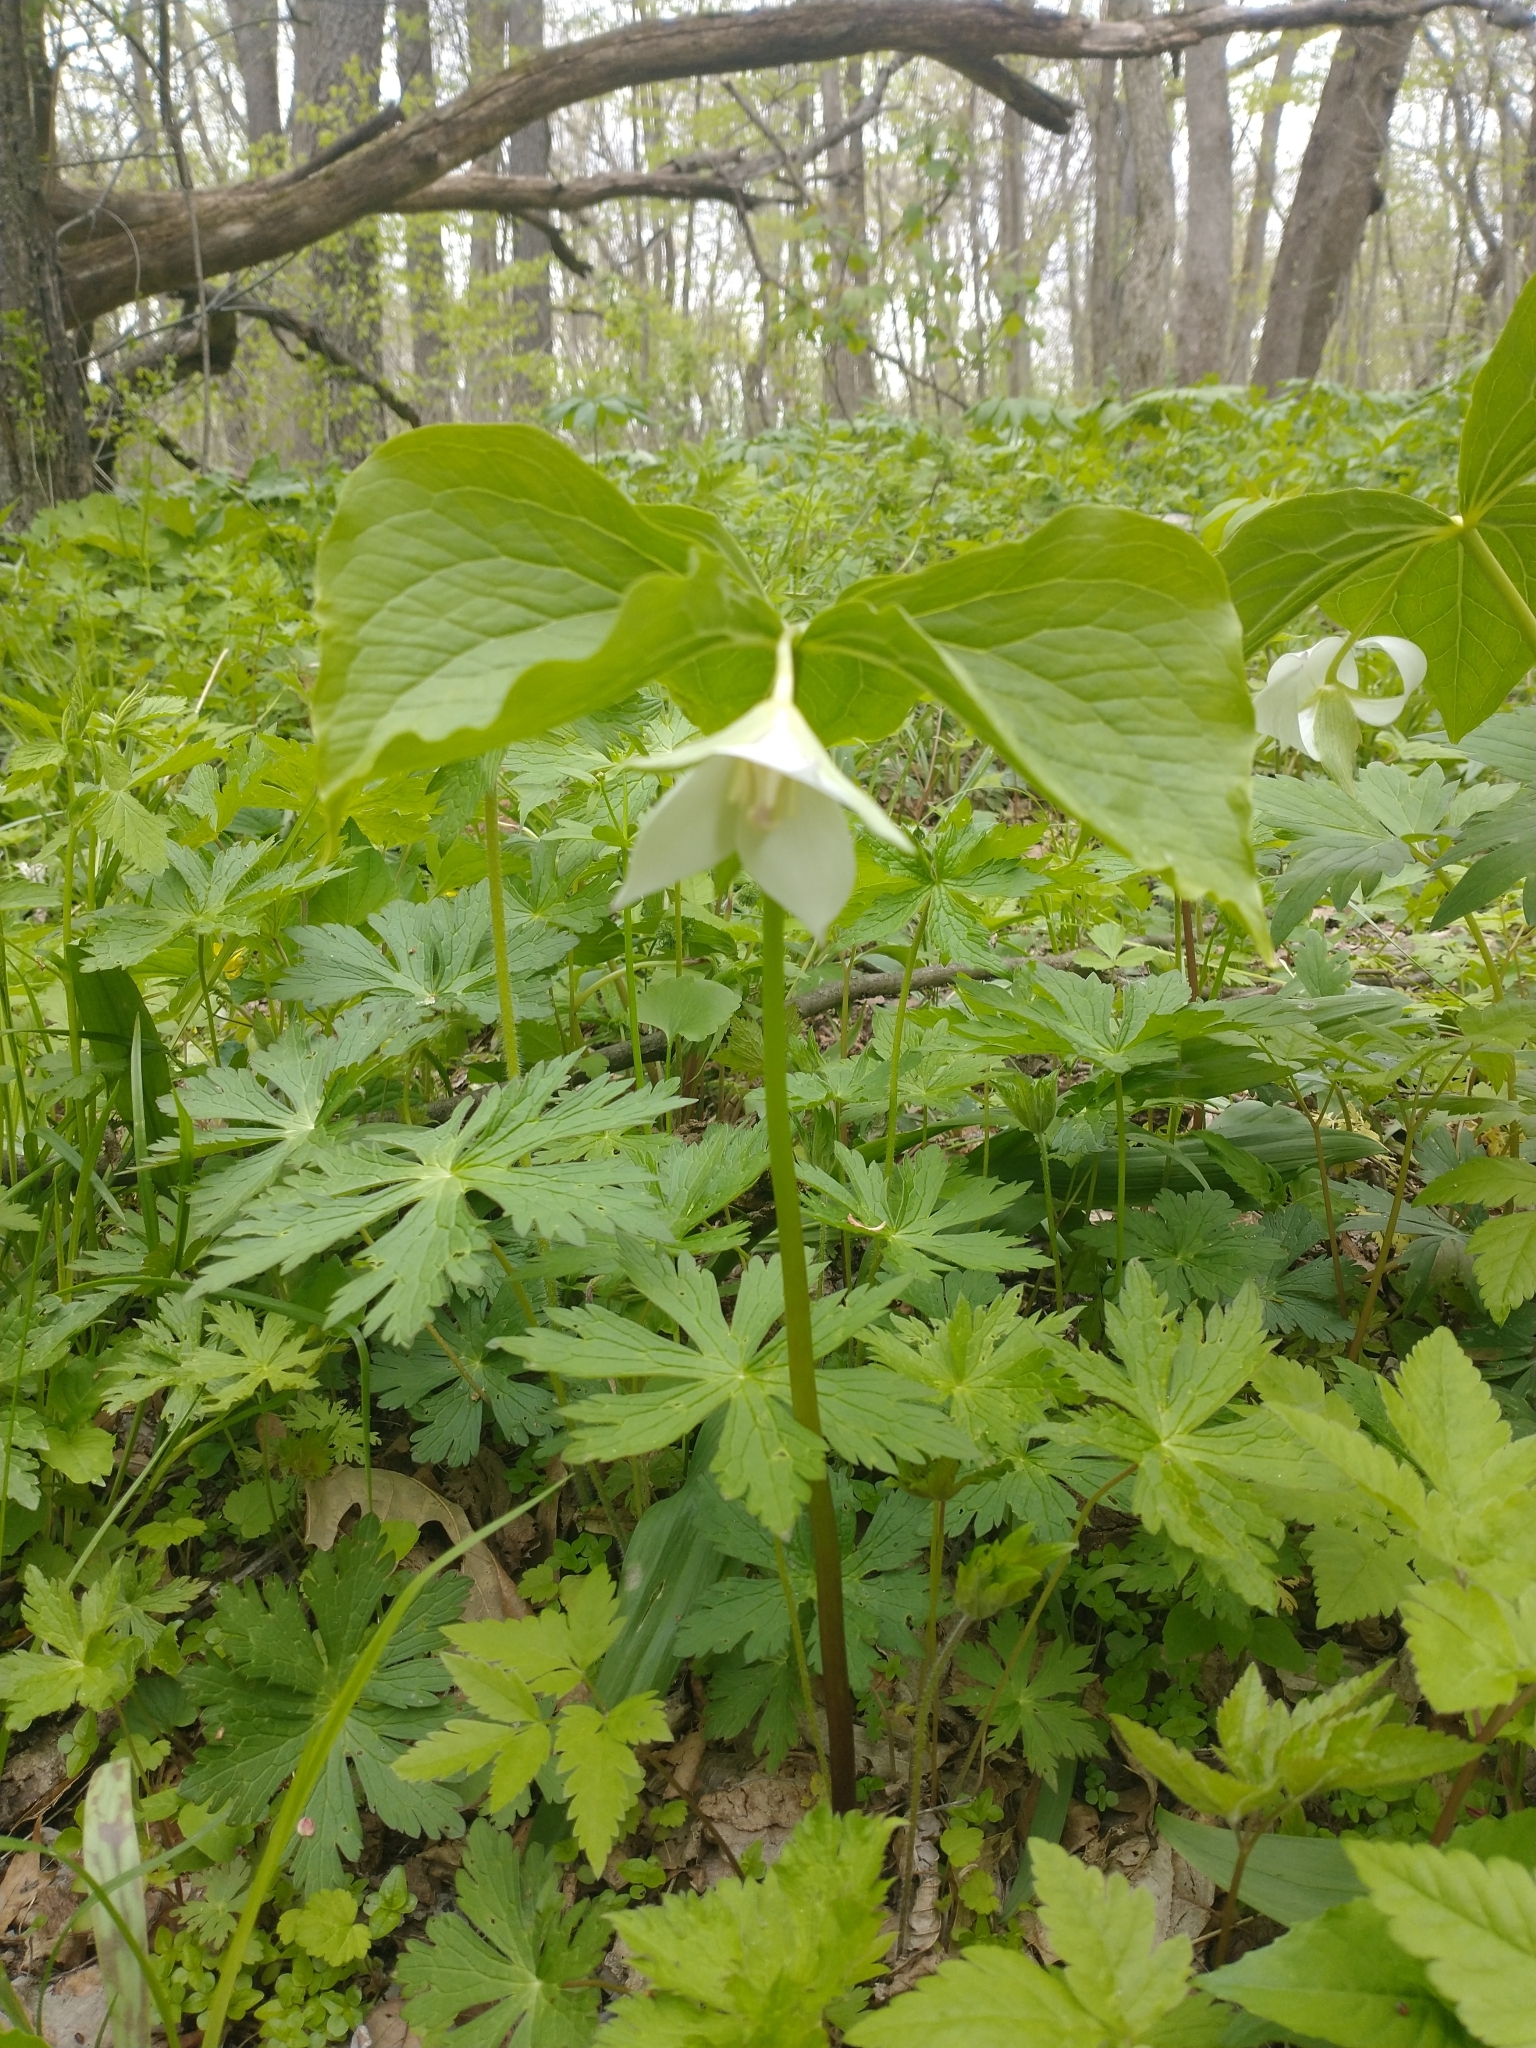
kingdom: Plantae
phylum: Tracheophyta
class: Liliopsida
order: Liliales
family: Melanthiaceae
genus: Trillium
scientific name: Trillium flexipes
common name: Drooping trillium
